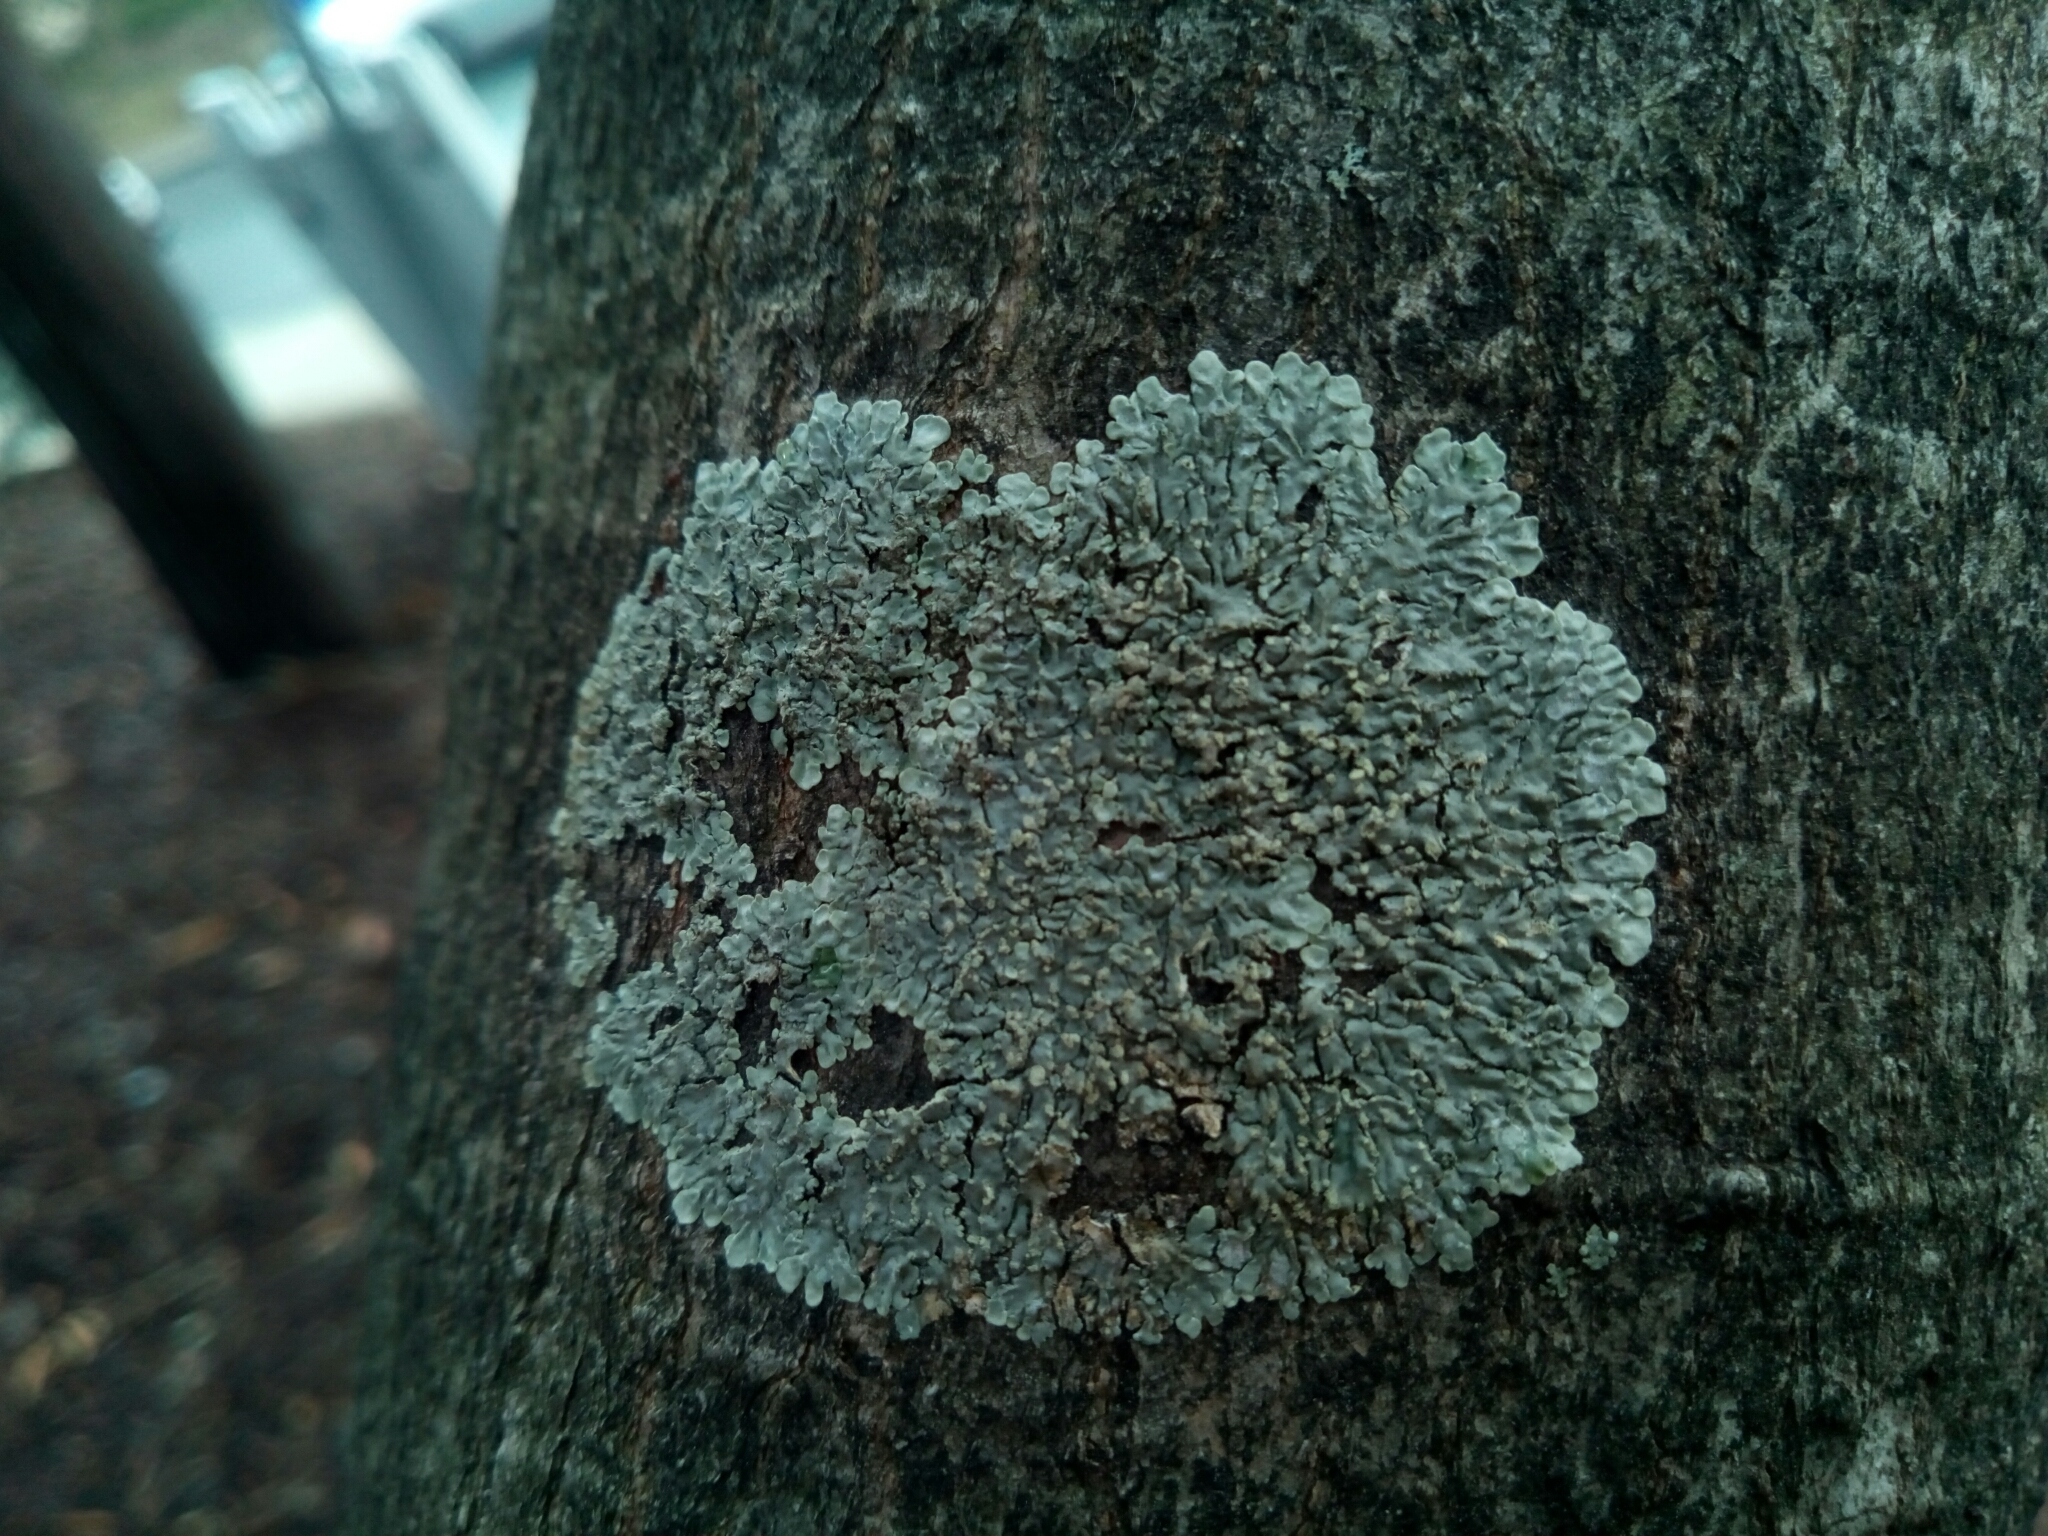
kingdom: Fungi
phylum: Ascomycota
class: Lecanoromycetes
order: Caliciales
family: Caliciaceae
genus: Pyxine
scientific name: Pyxine sorediata
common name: Mustard lichen
